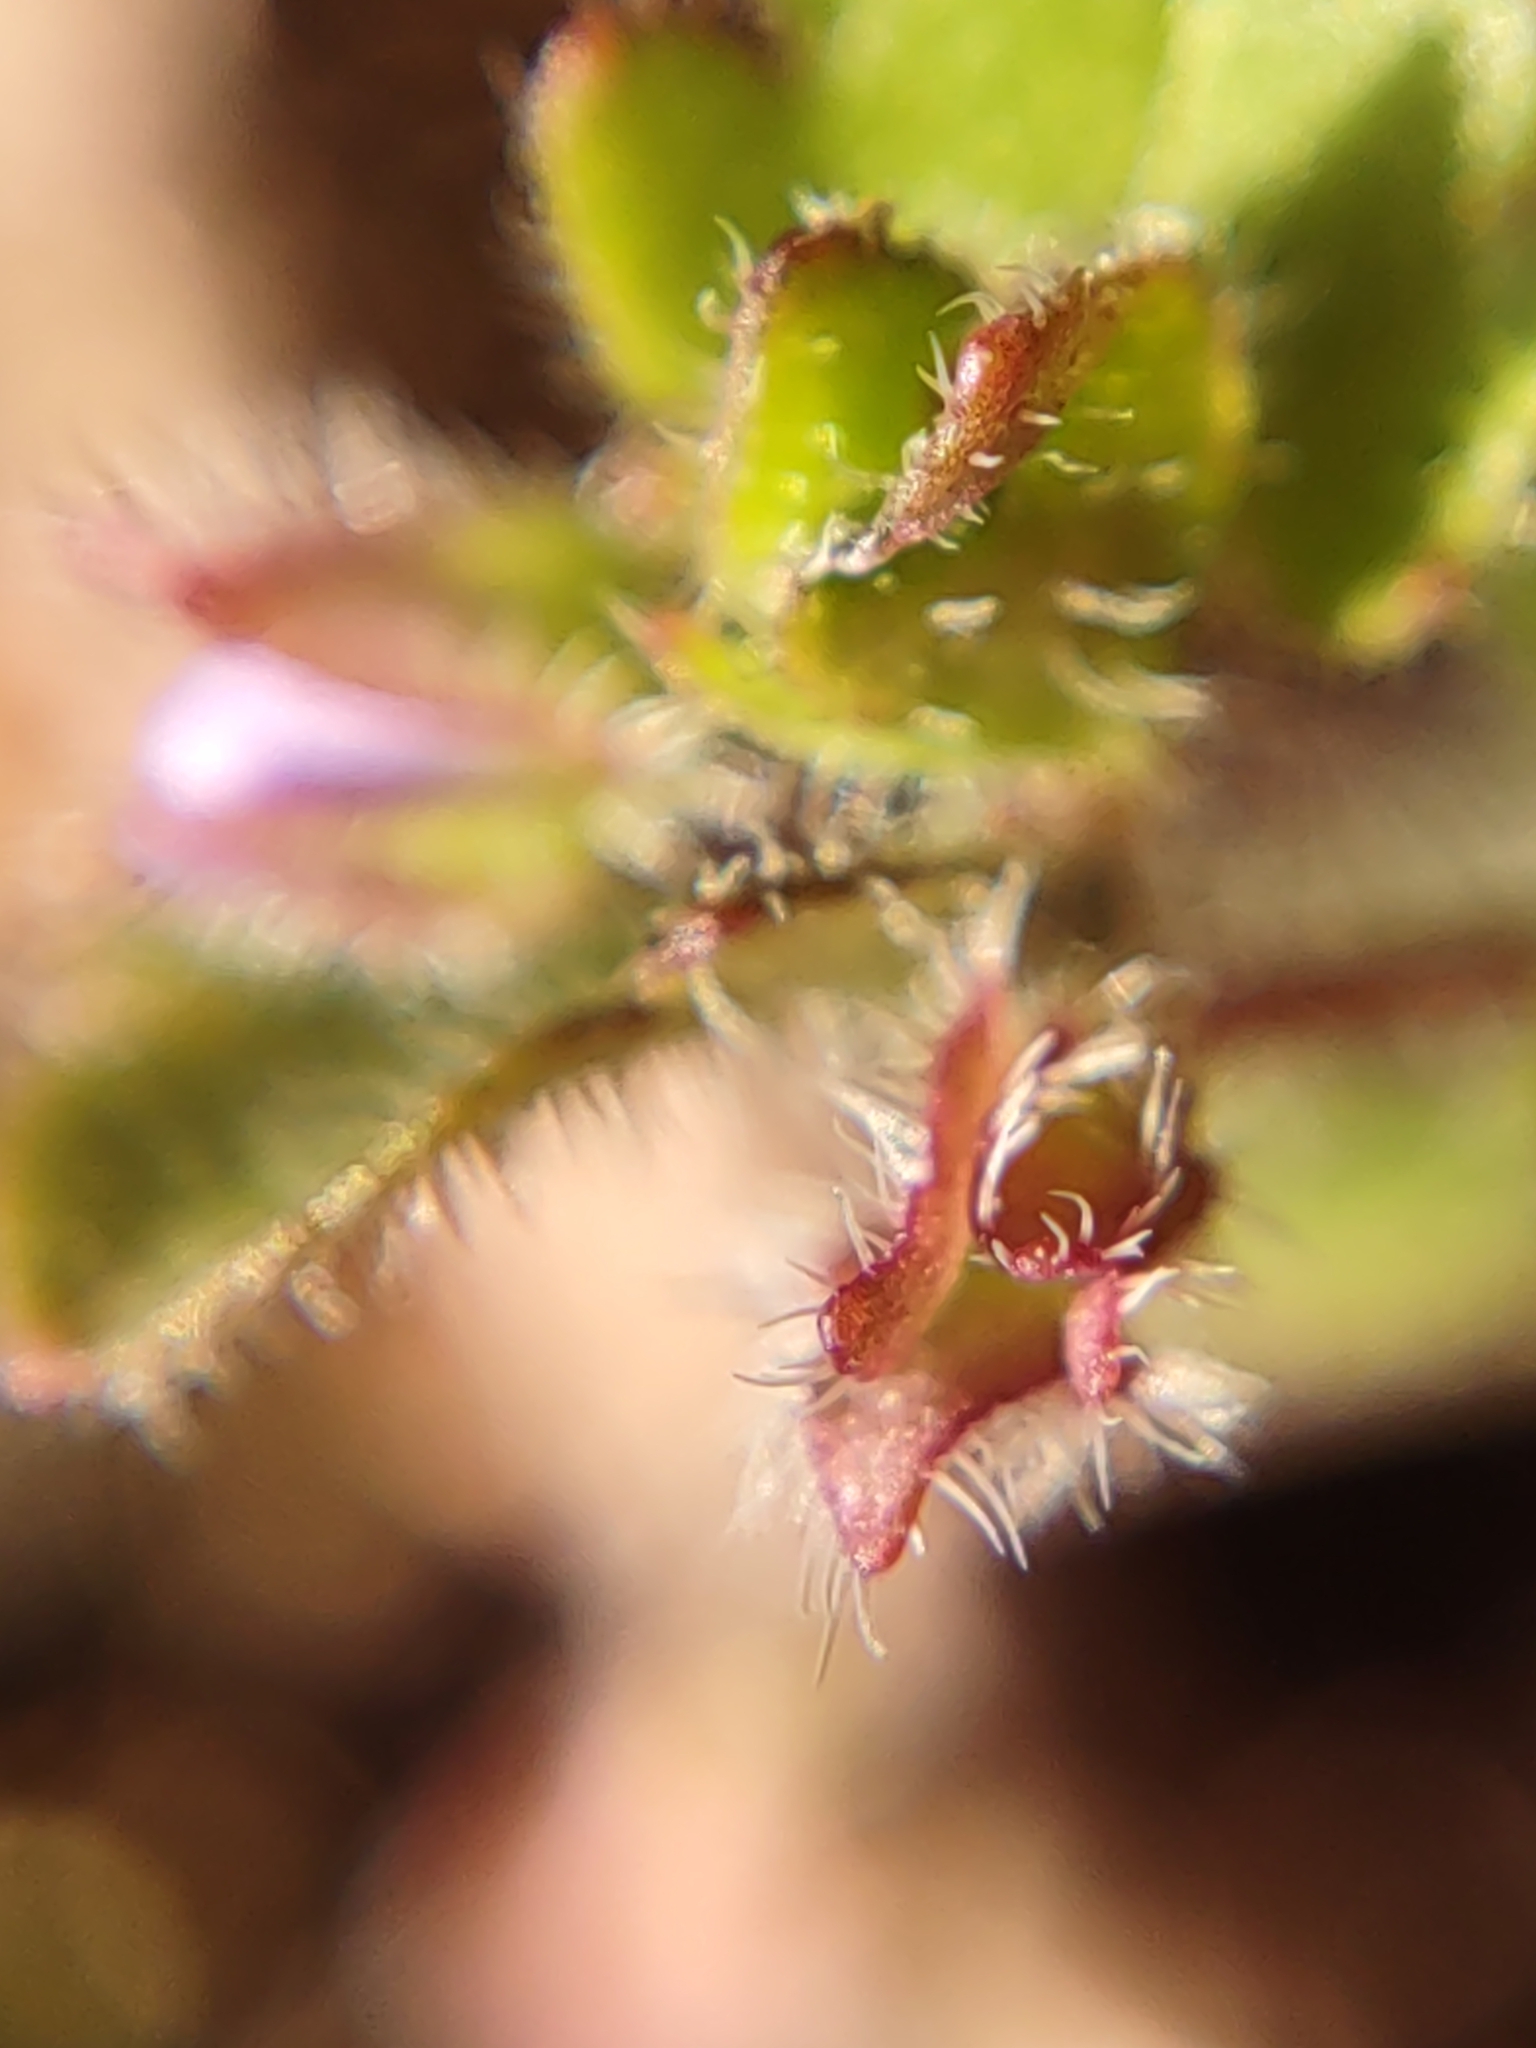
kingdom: Plantae
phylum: Tracheophyta
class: Magnoliopsida
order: Lamiales
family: Plantaginaceae
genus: Veronica
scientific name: Veronica sublobata
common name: False ivy-leaved speedwell
